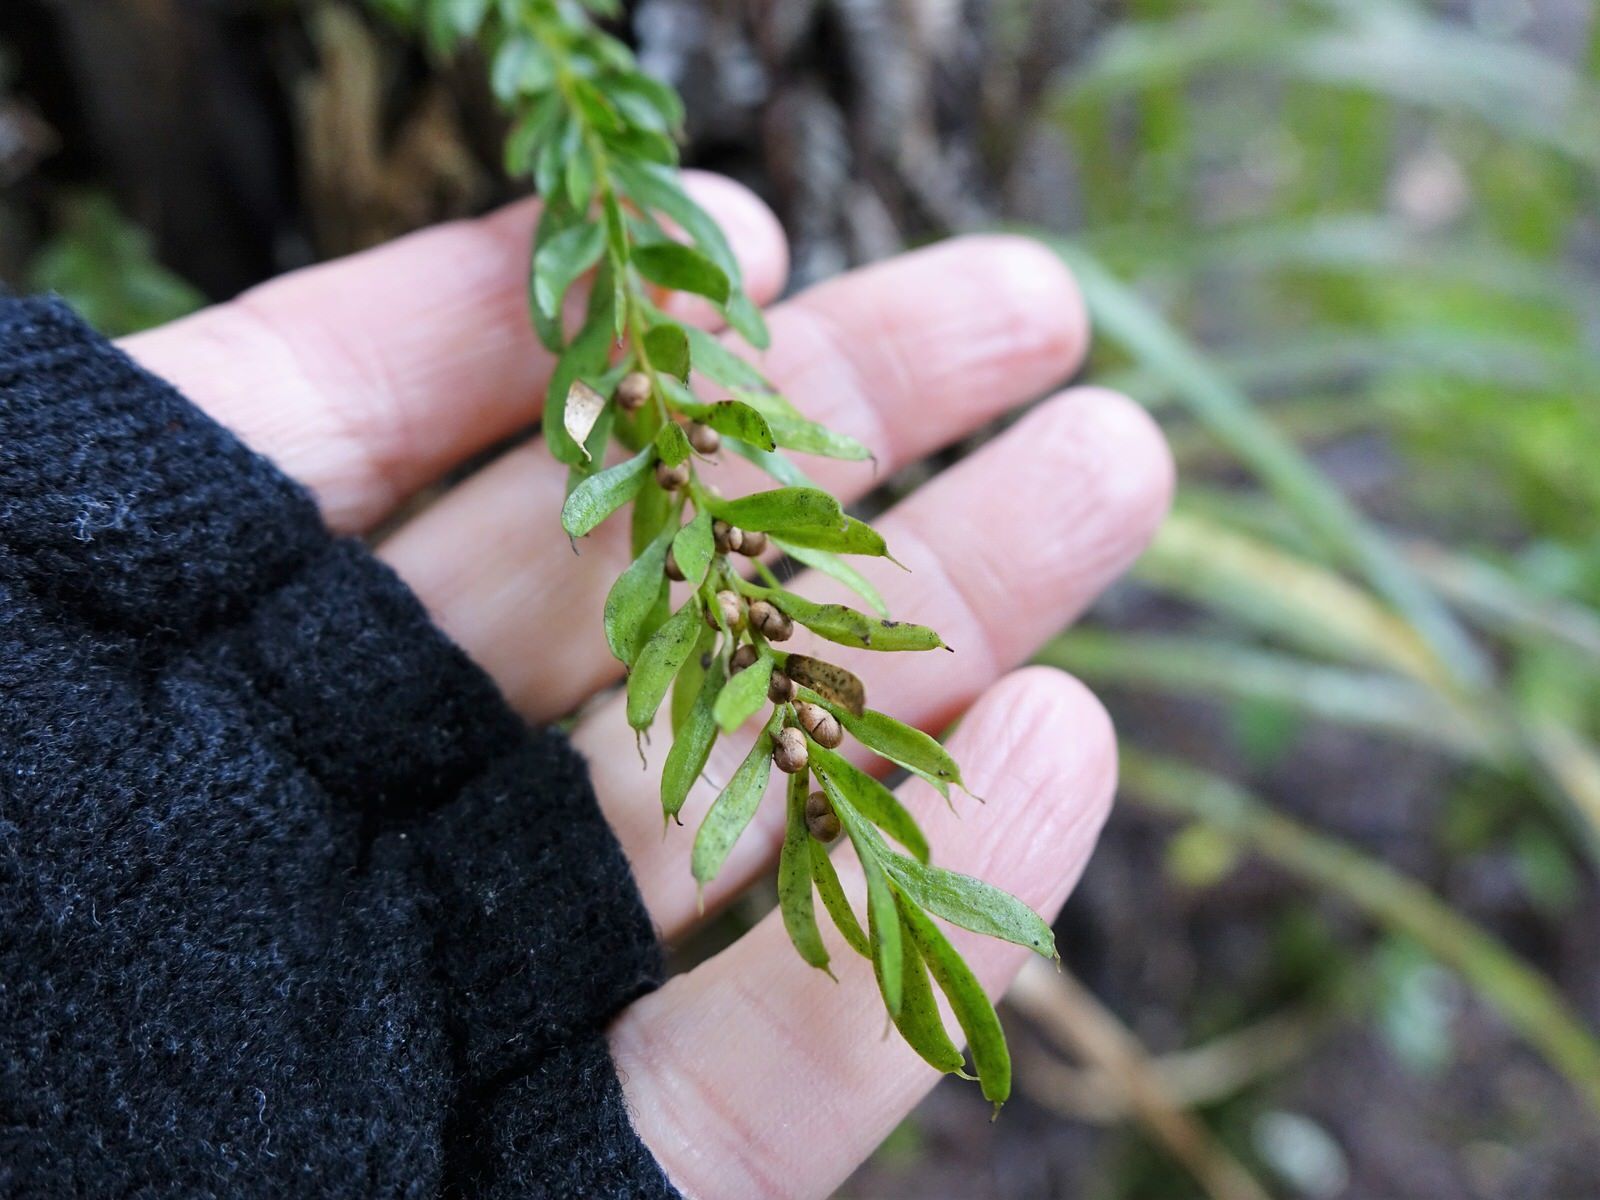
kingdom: Plantae
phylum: Tracheophyta
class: Polypodiopsida
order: Psilotales
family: Psilotaceae
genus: Tmesipteris
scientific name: Tmesipteris sigmatifolia
